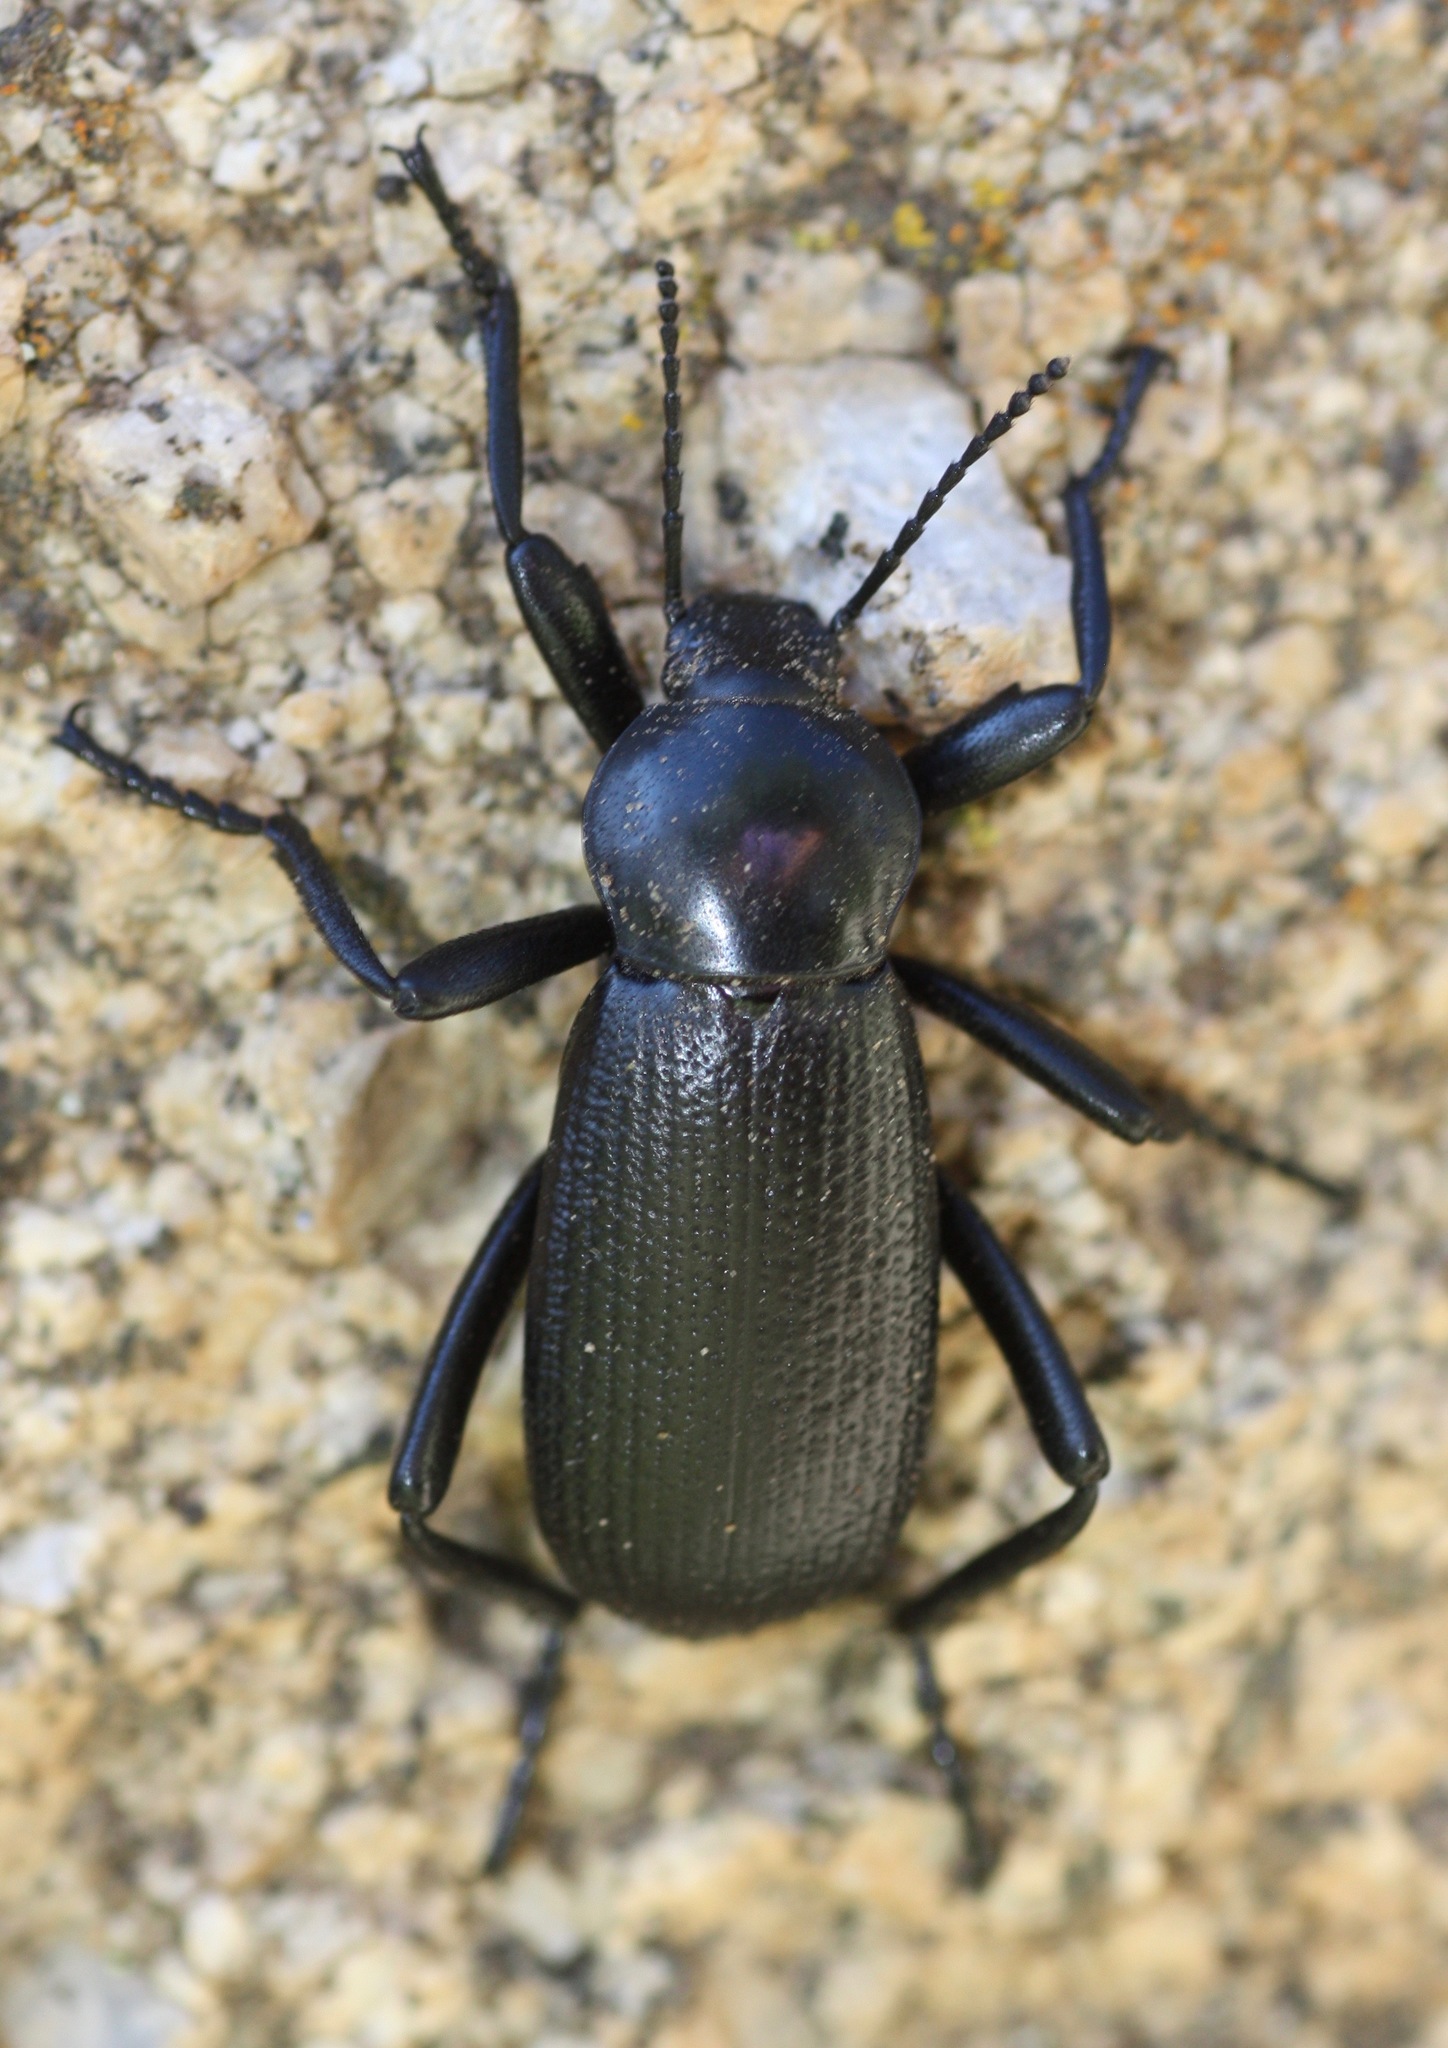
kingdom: Animalia
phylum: Arthropoda
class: Insecta
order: Coleoptera
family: Tenebrionidae
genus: Eleodes
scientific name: Eleodes obscura
